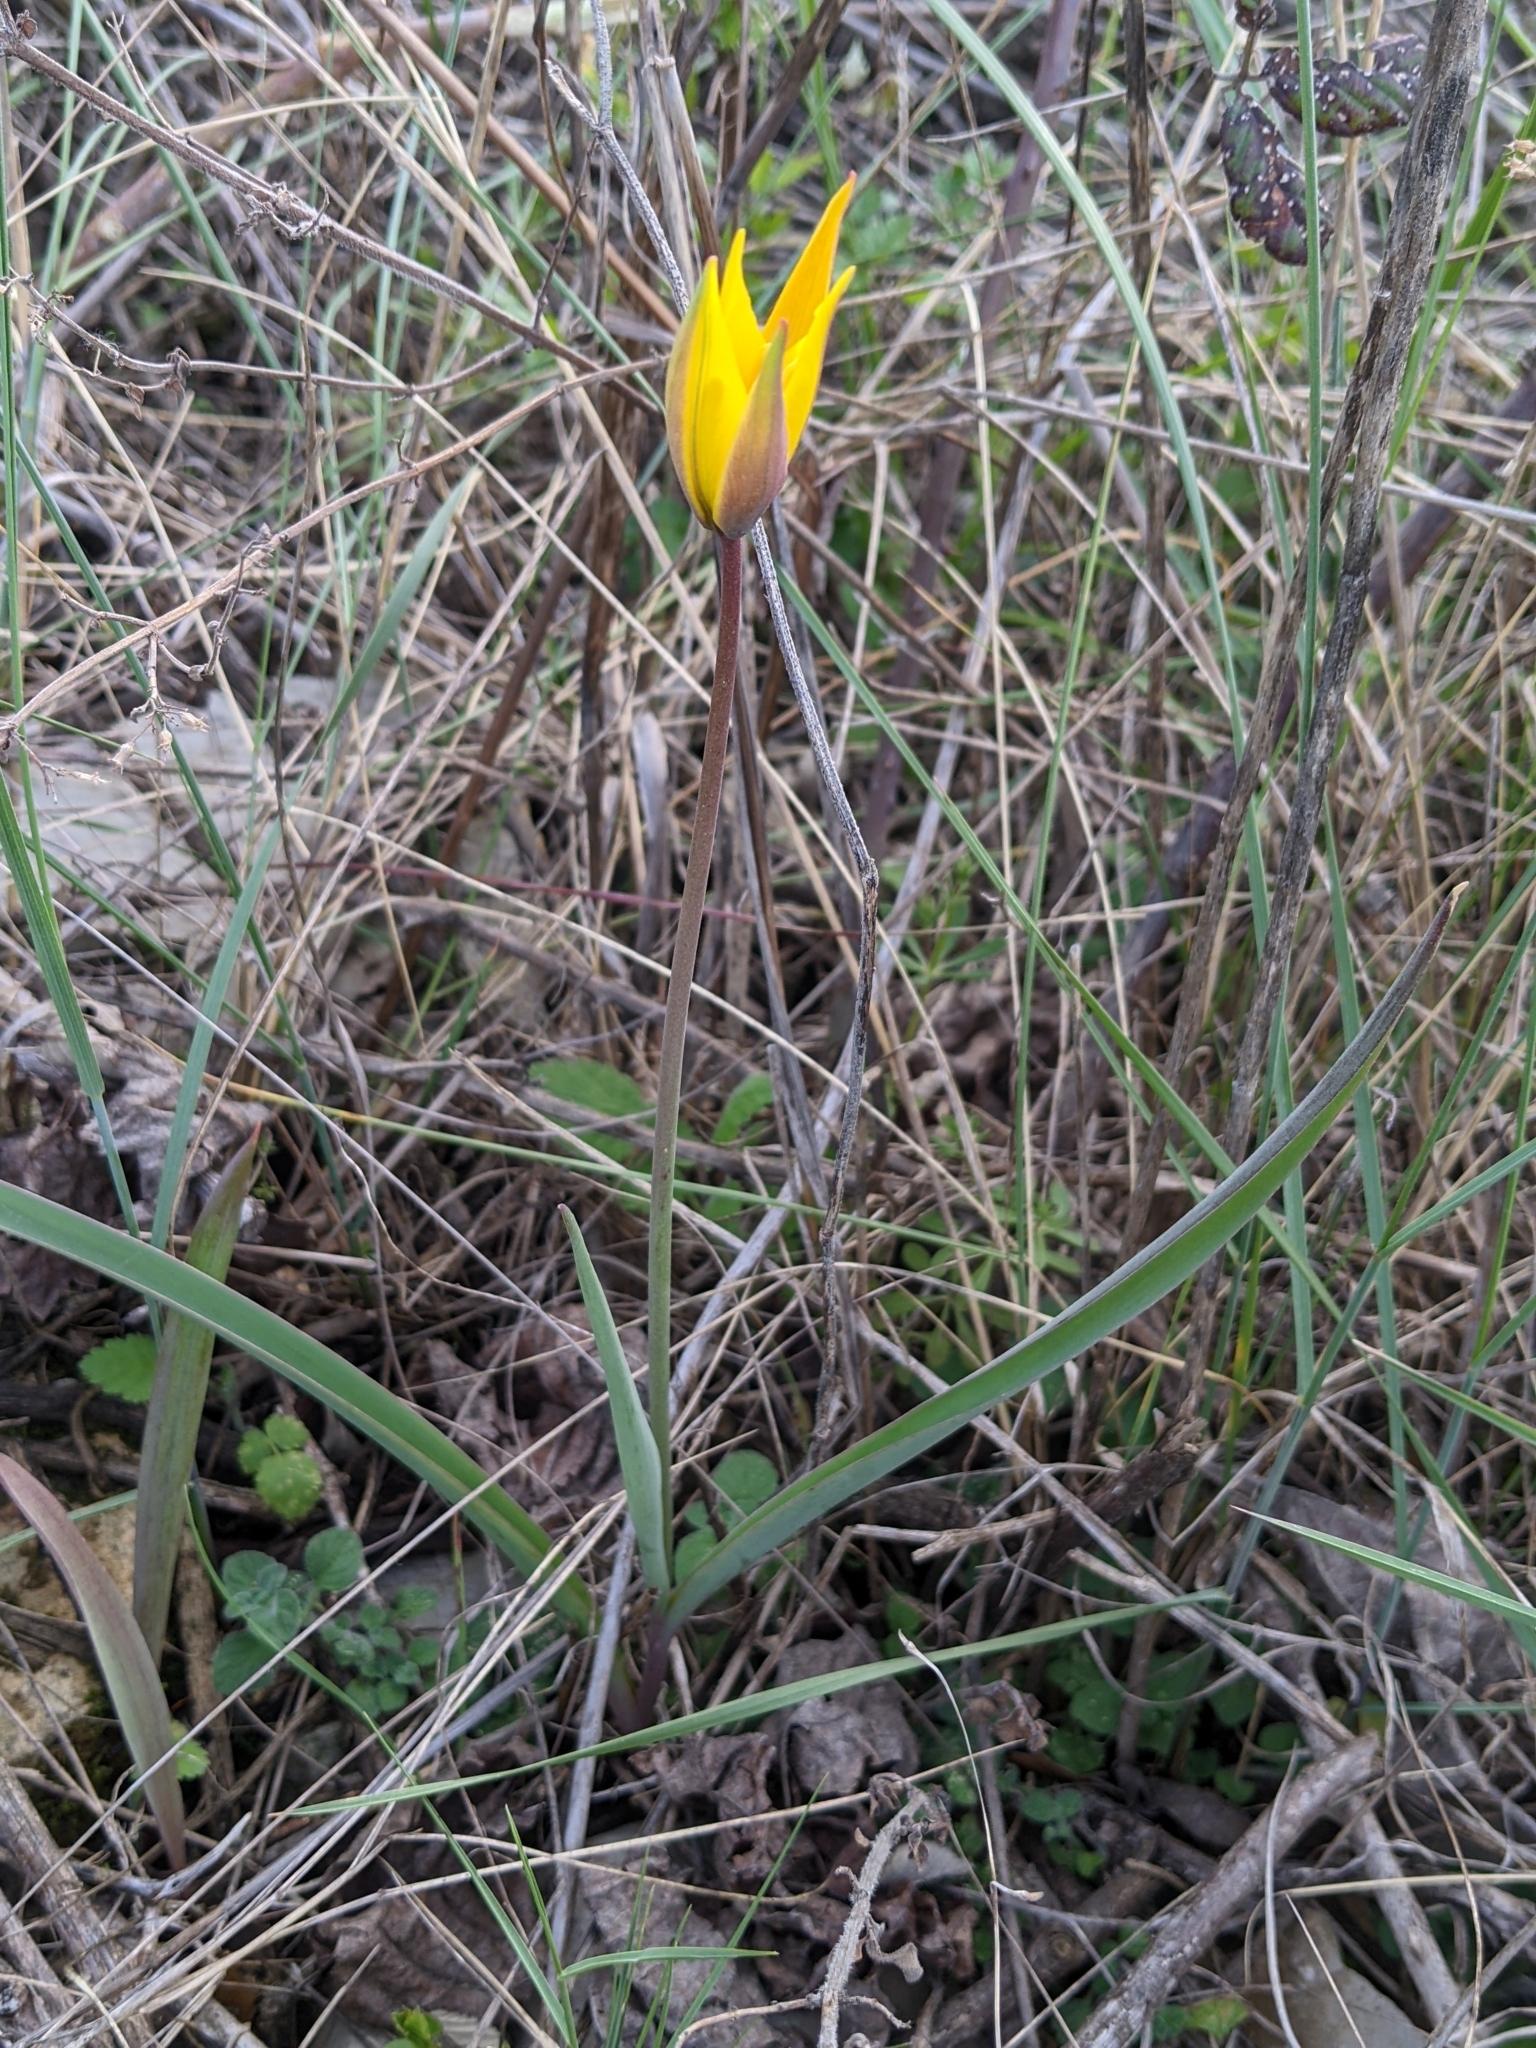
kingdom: Plantae
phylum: Tracheophyta
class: Liliopsida
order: Liliales
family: Liliaceae
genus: Tulipa
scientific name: Tulipa sylvestris
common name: Wild tulip
